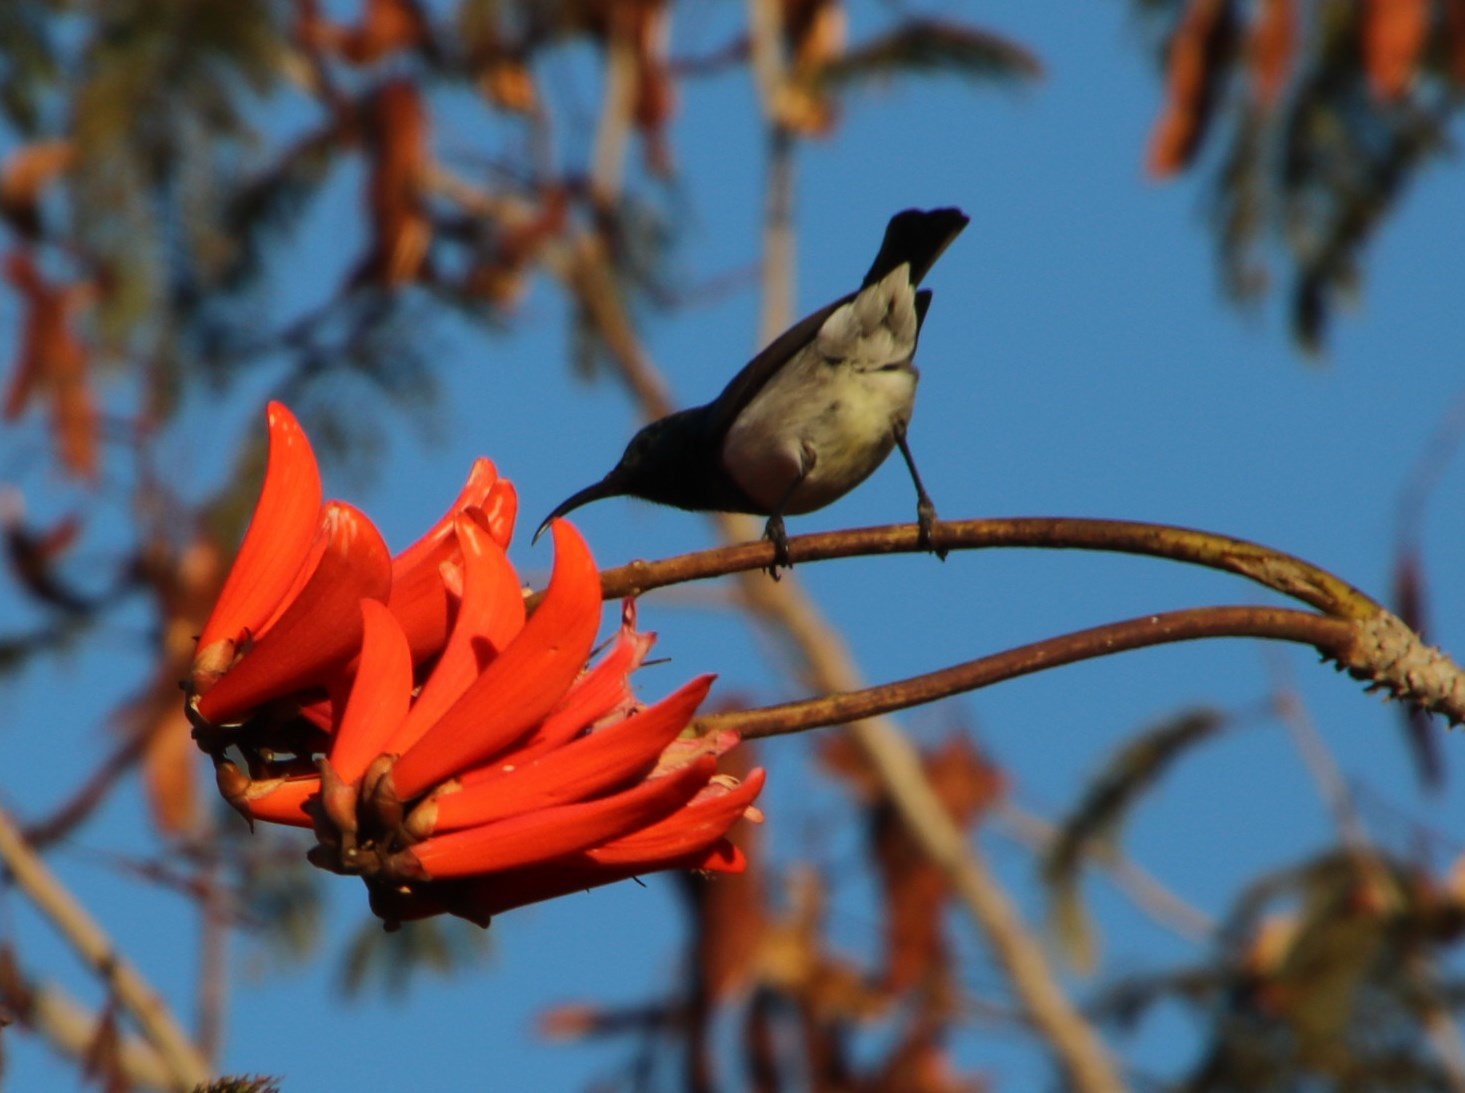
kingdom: Animalia
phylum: Chordata
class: Aves
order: Passeriformes
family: Nectariniidae
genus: Cinnyris
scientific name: Cinnyris talatala
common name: White-bellied sunbird
